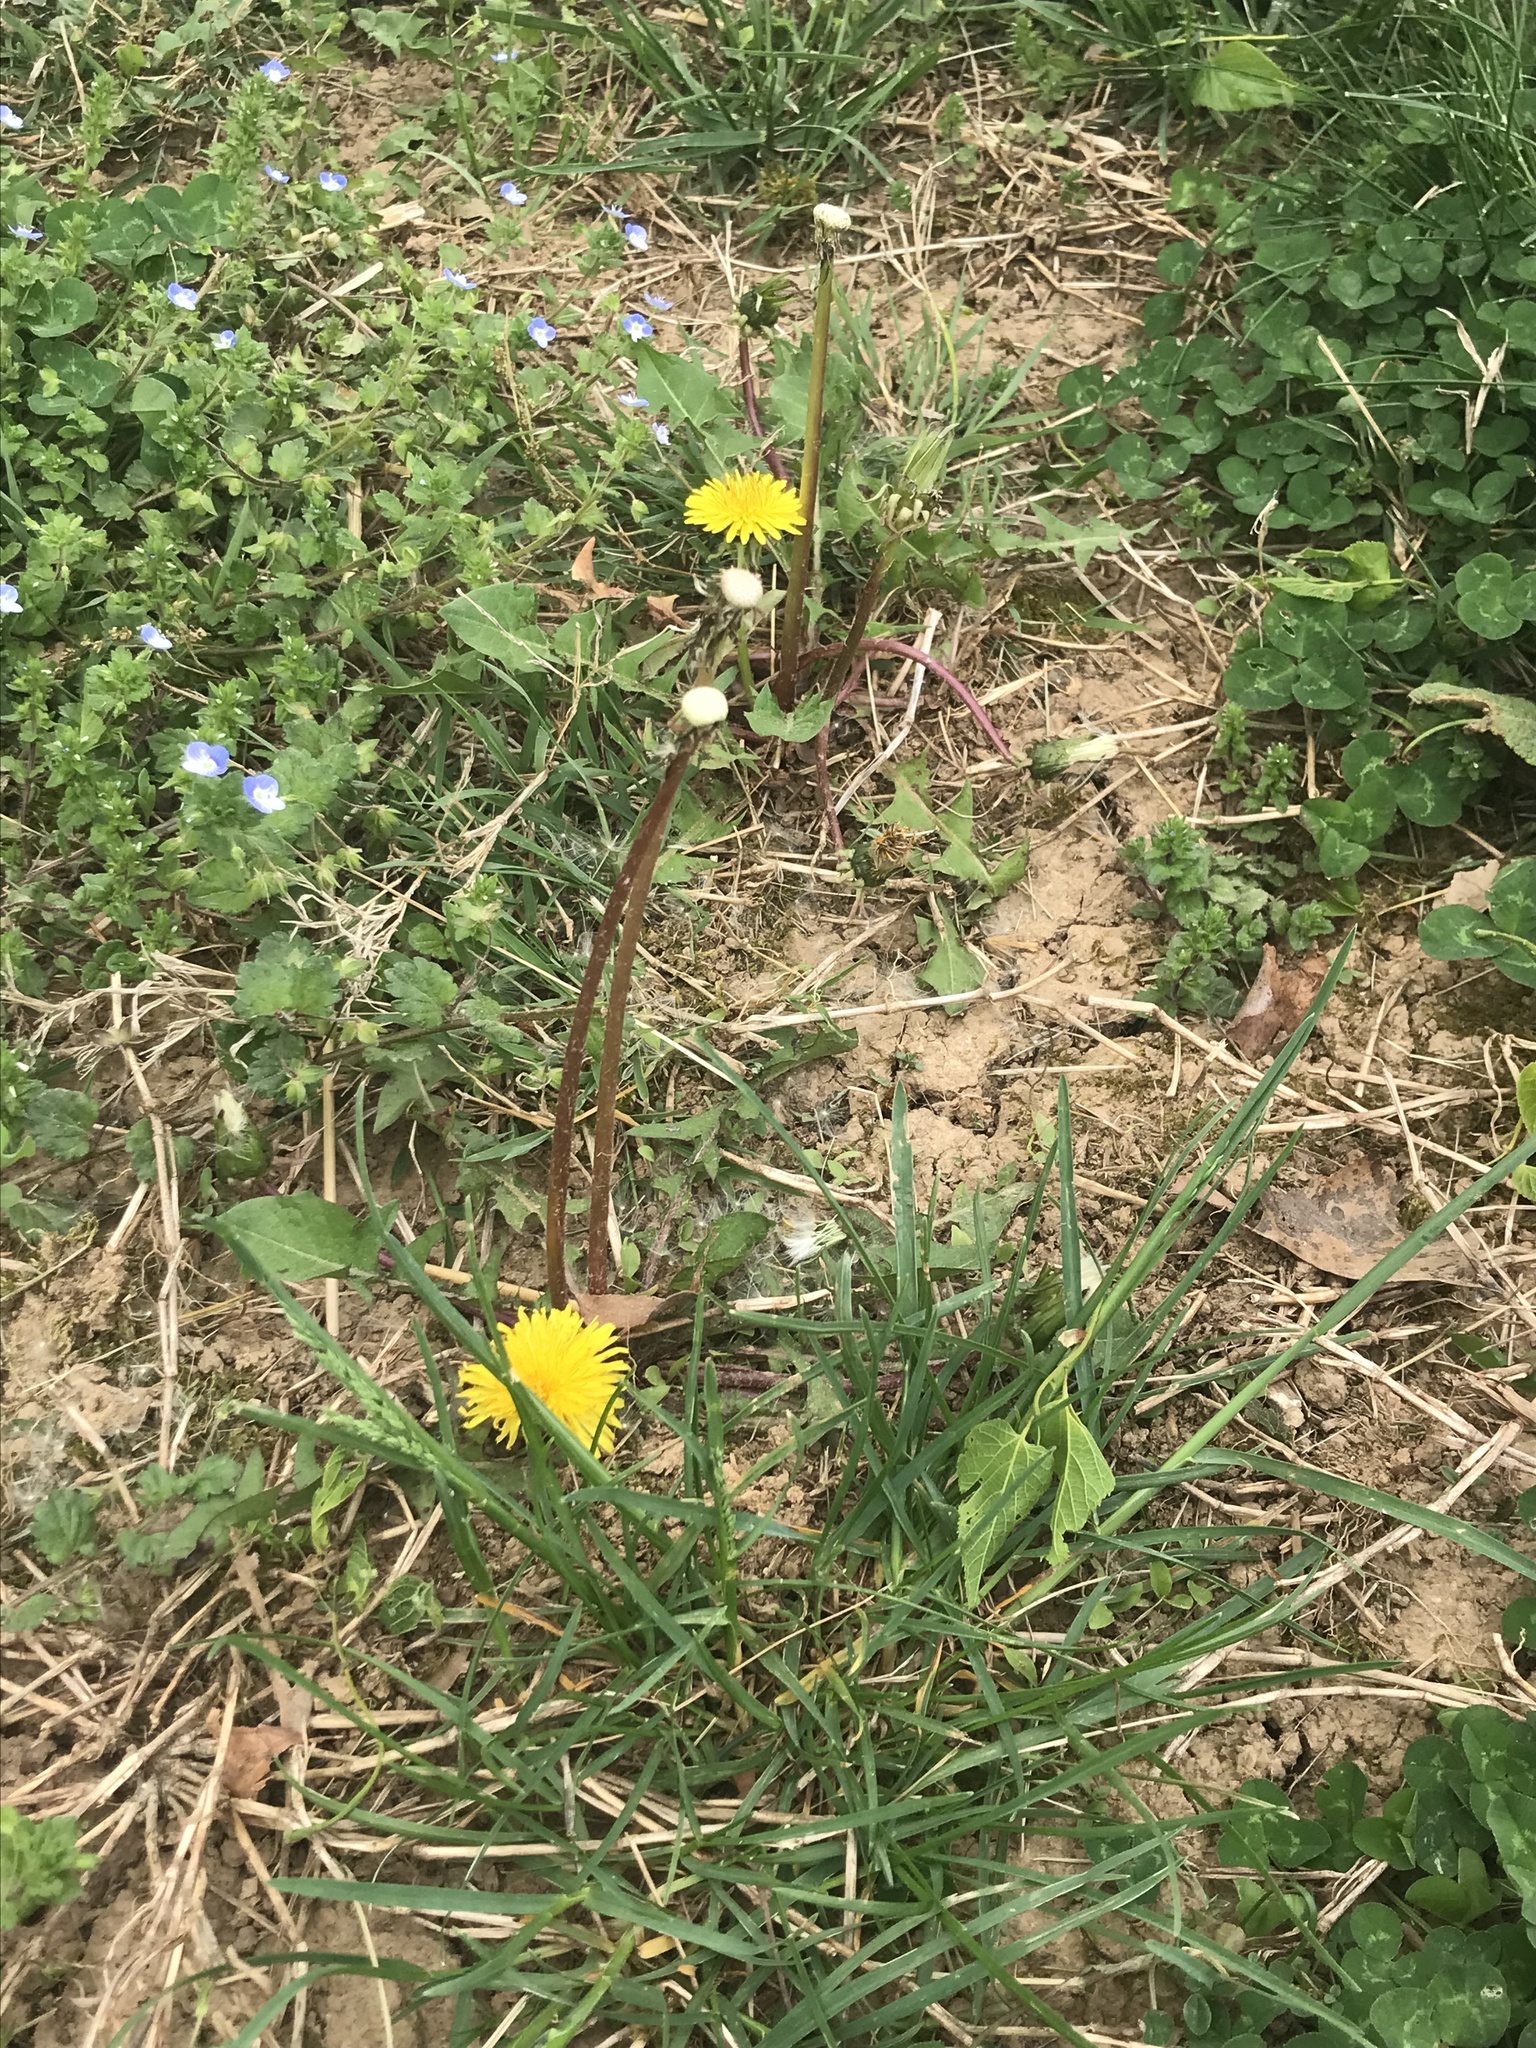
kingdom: Plantae
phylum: Tracheophyta
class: Magnoliopsida
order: Asterales
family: Asteraceae
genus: Taraxacum
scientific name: Taraxacum
